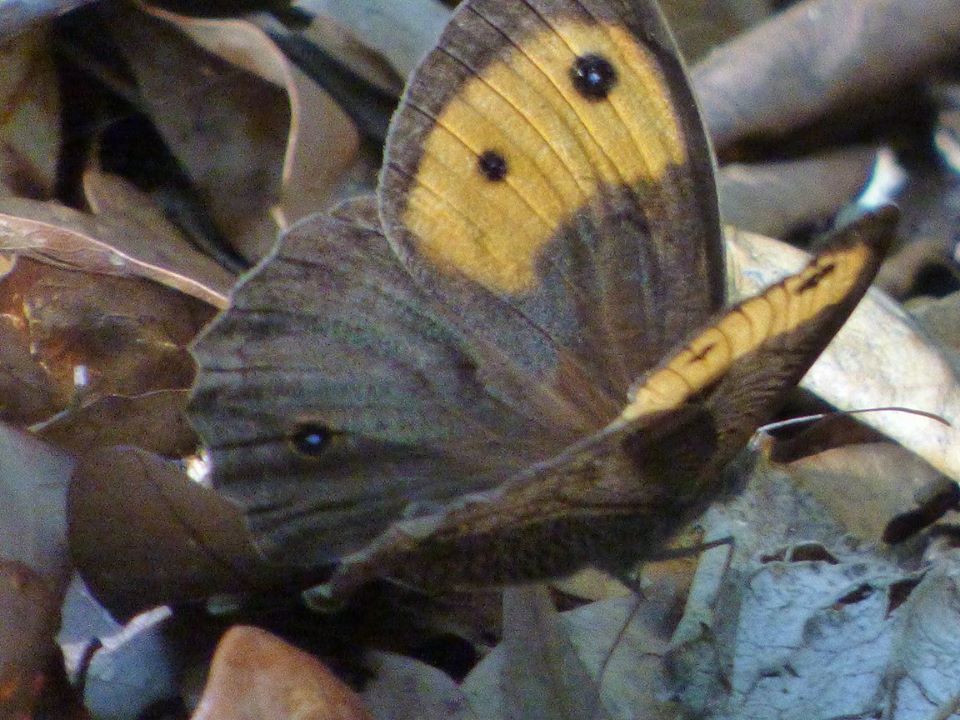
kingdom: Animalia
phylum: Arthropoda
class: Insecta
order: Lepidoptera
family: Nymphalidae
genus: Cercyonis
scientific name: Cercyonis pegala
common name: Common wood-nymph
